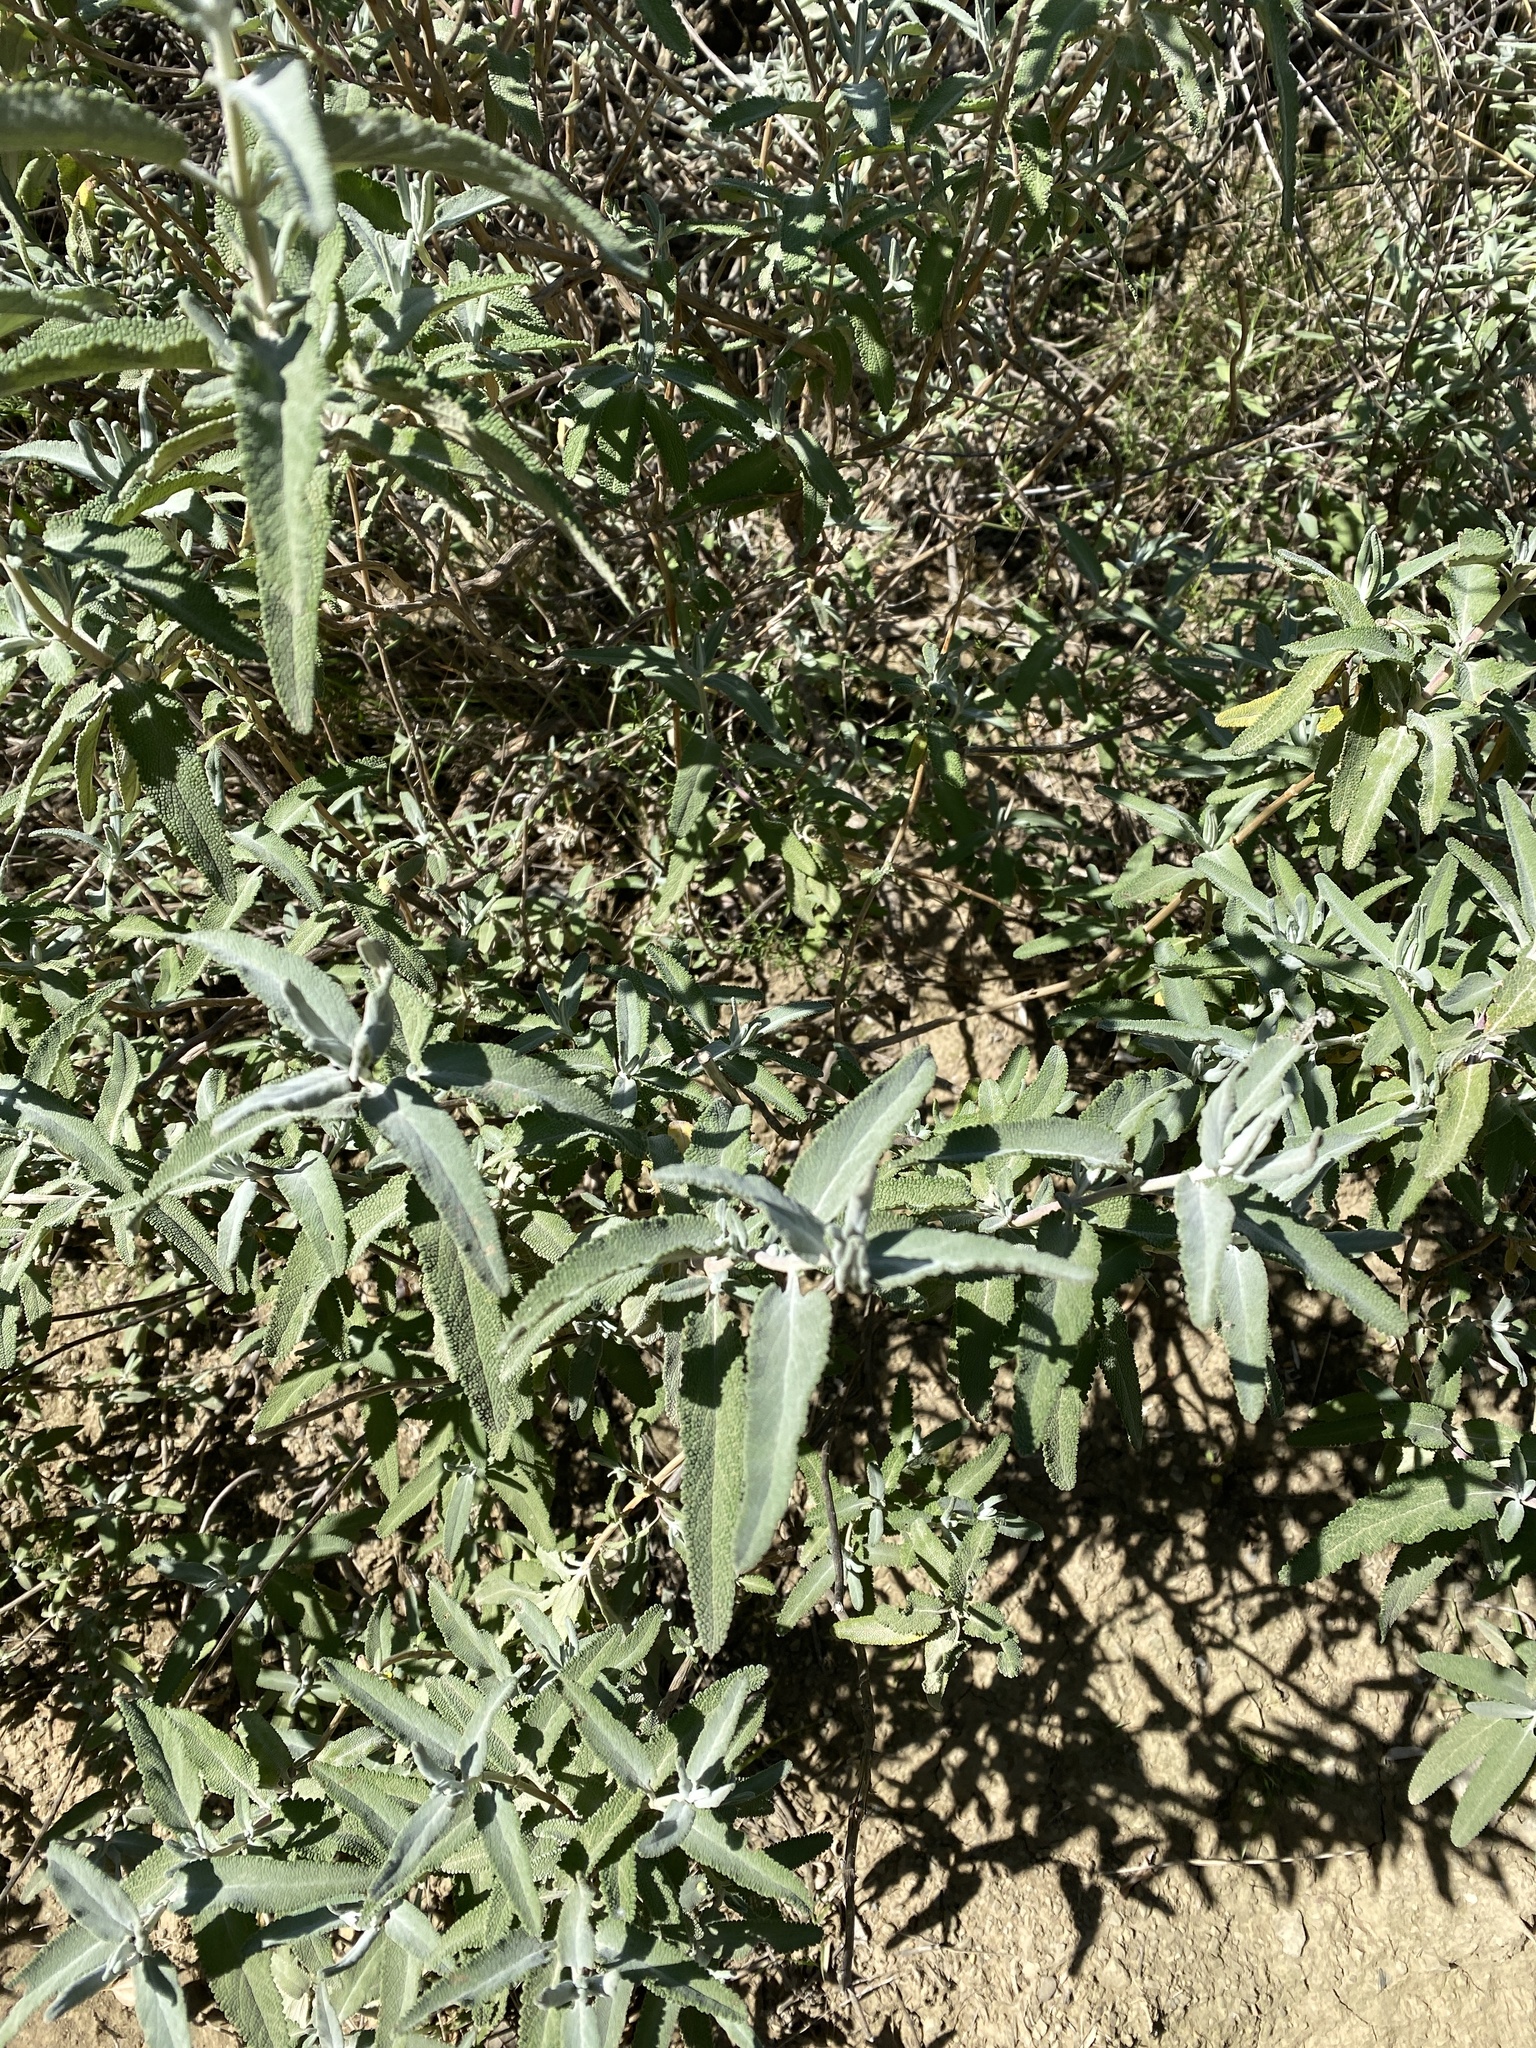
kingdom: Plantae
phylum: Tracheophyta
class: Magnoliopsida
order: Lamiales
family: Lamiaceae
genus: Salvia
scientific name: Salvia leucophylla
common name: Purple sage
